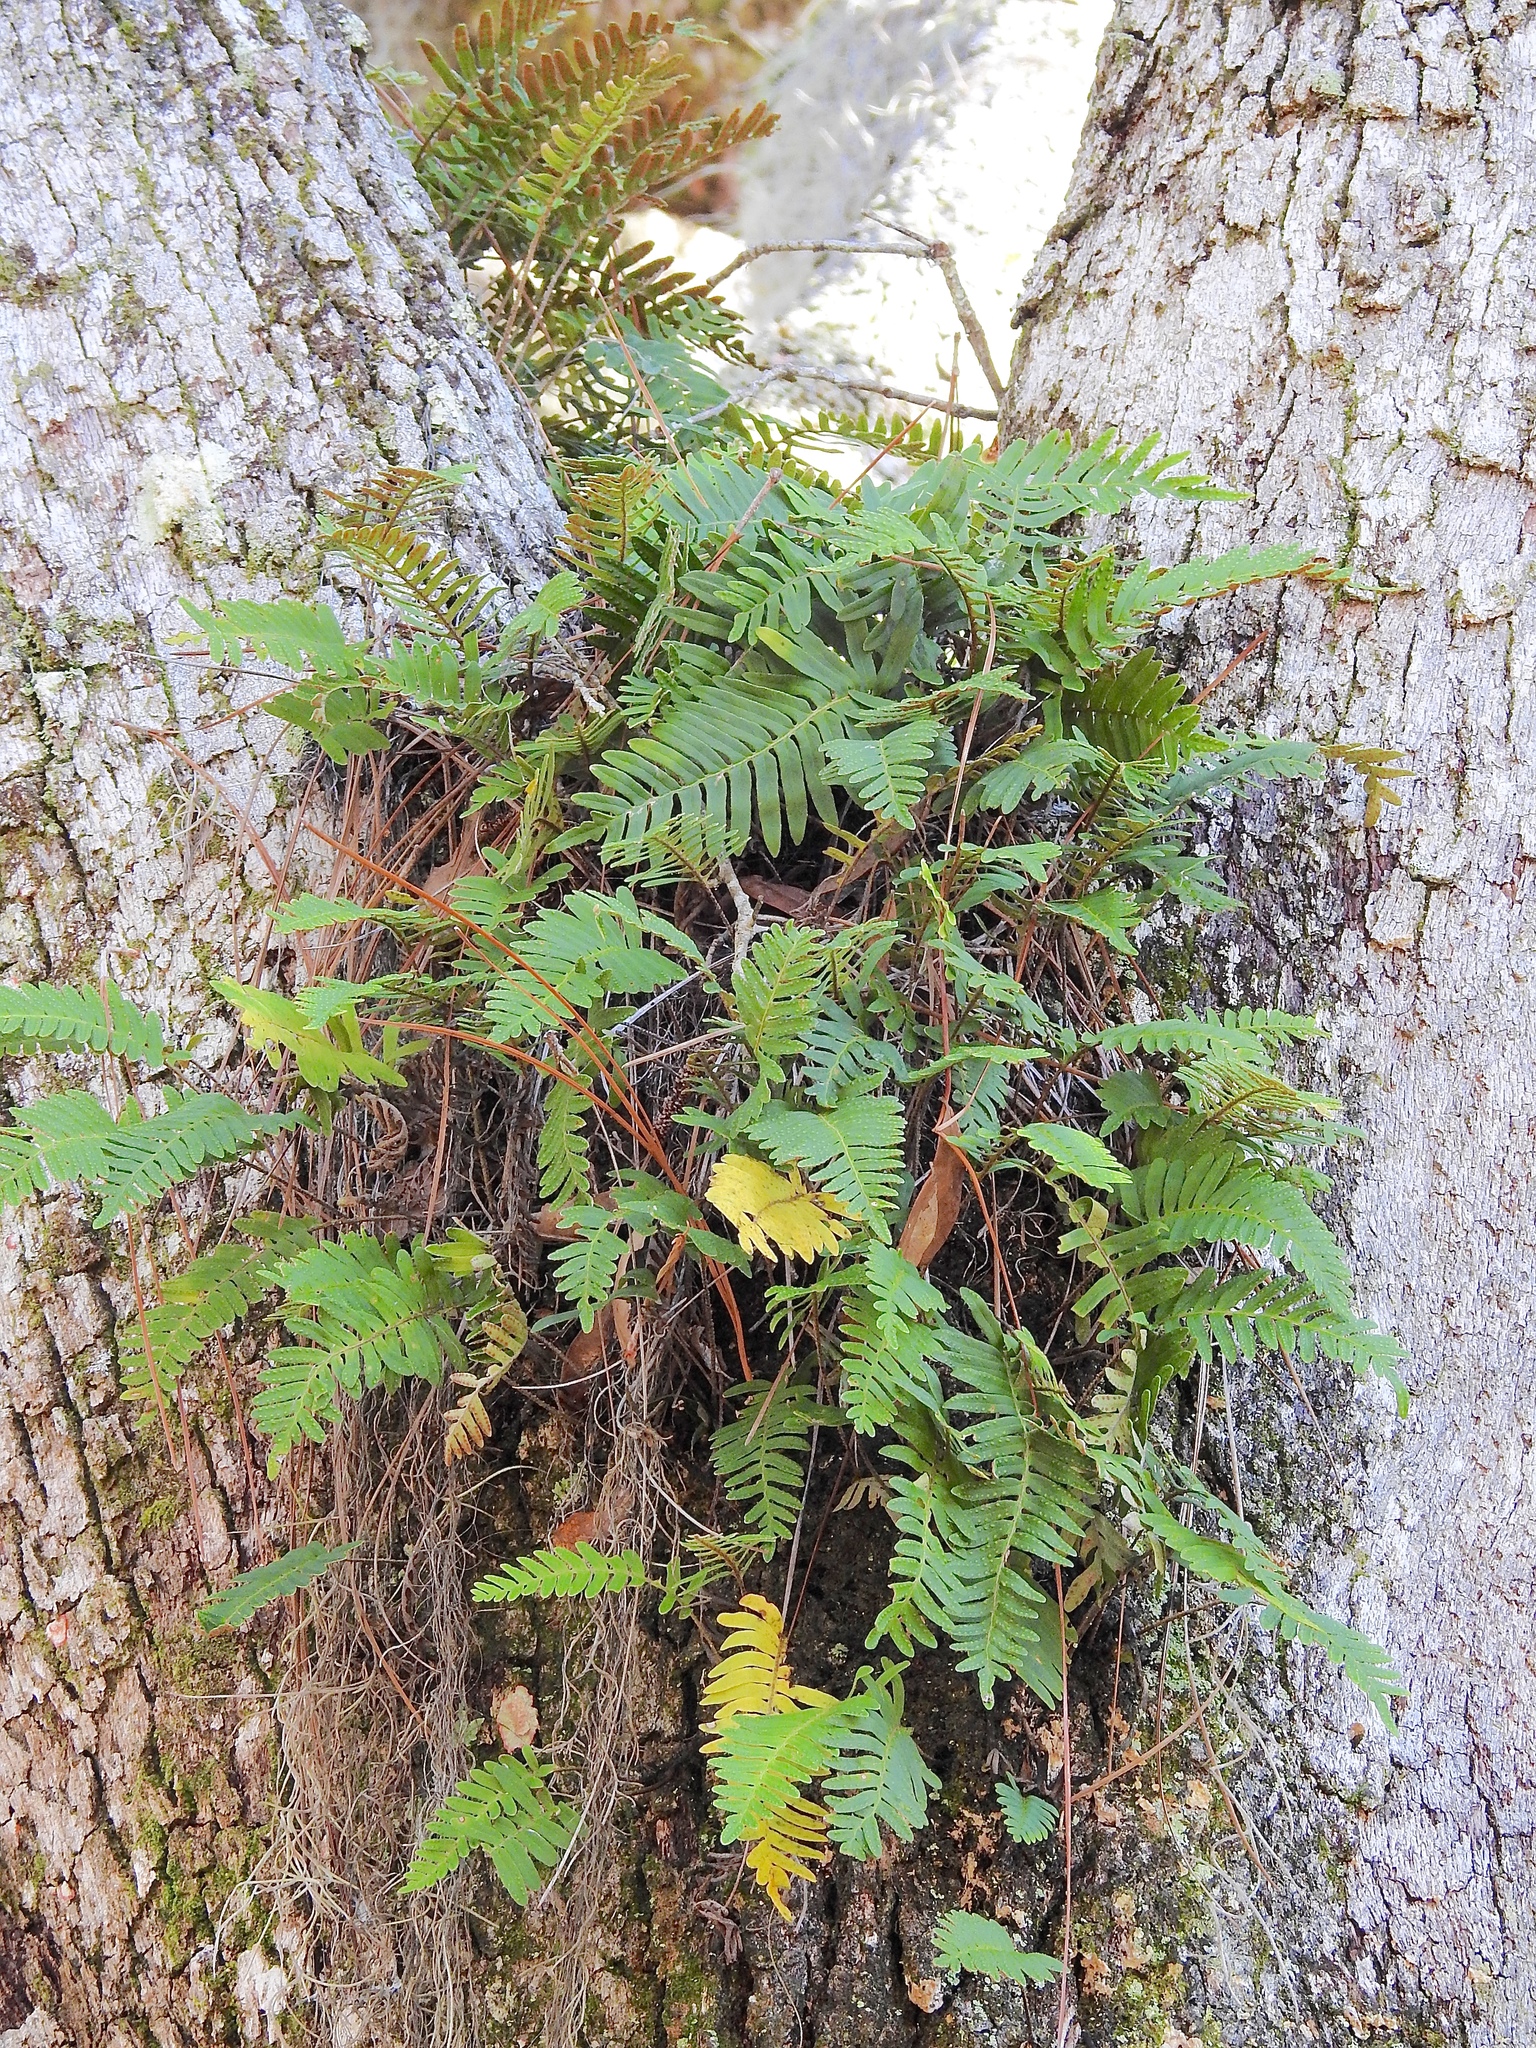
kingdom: Plantae
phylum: Tracheophyta
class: Polypodiopsida
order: Polypodiales
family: Polypodiaceae
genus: Pleopeltis
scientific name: Pleopeltis michauxiana
